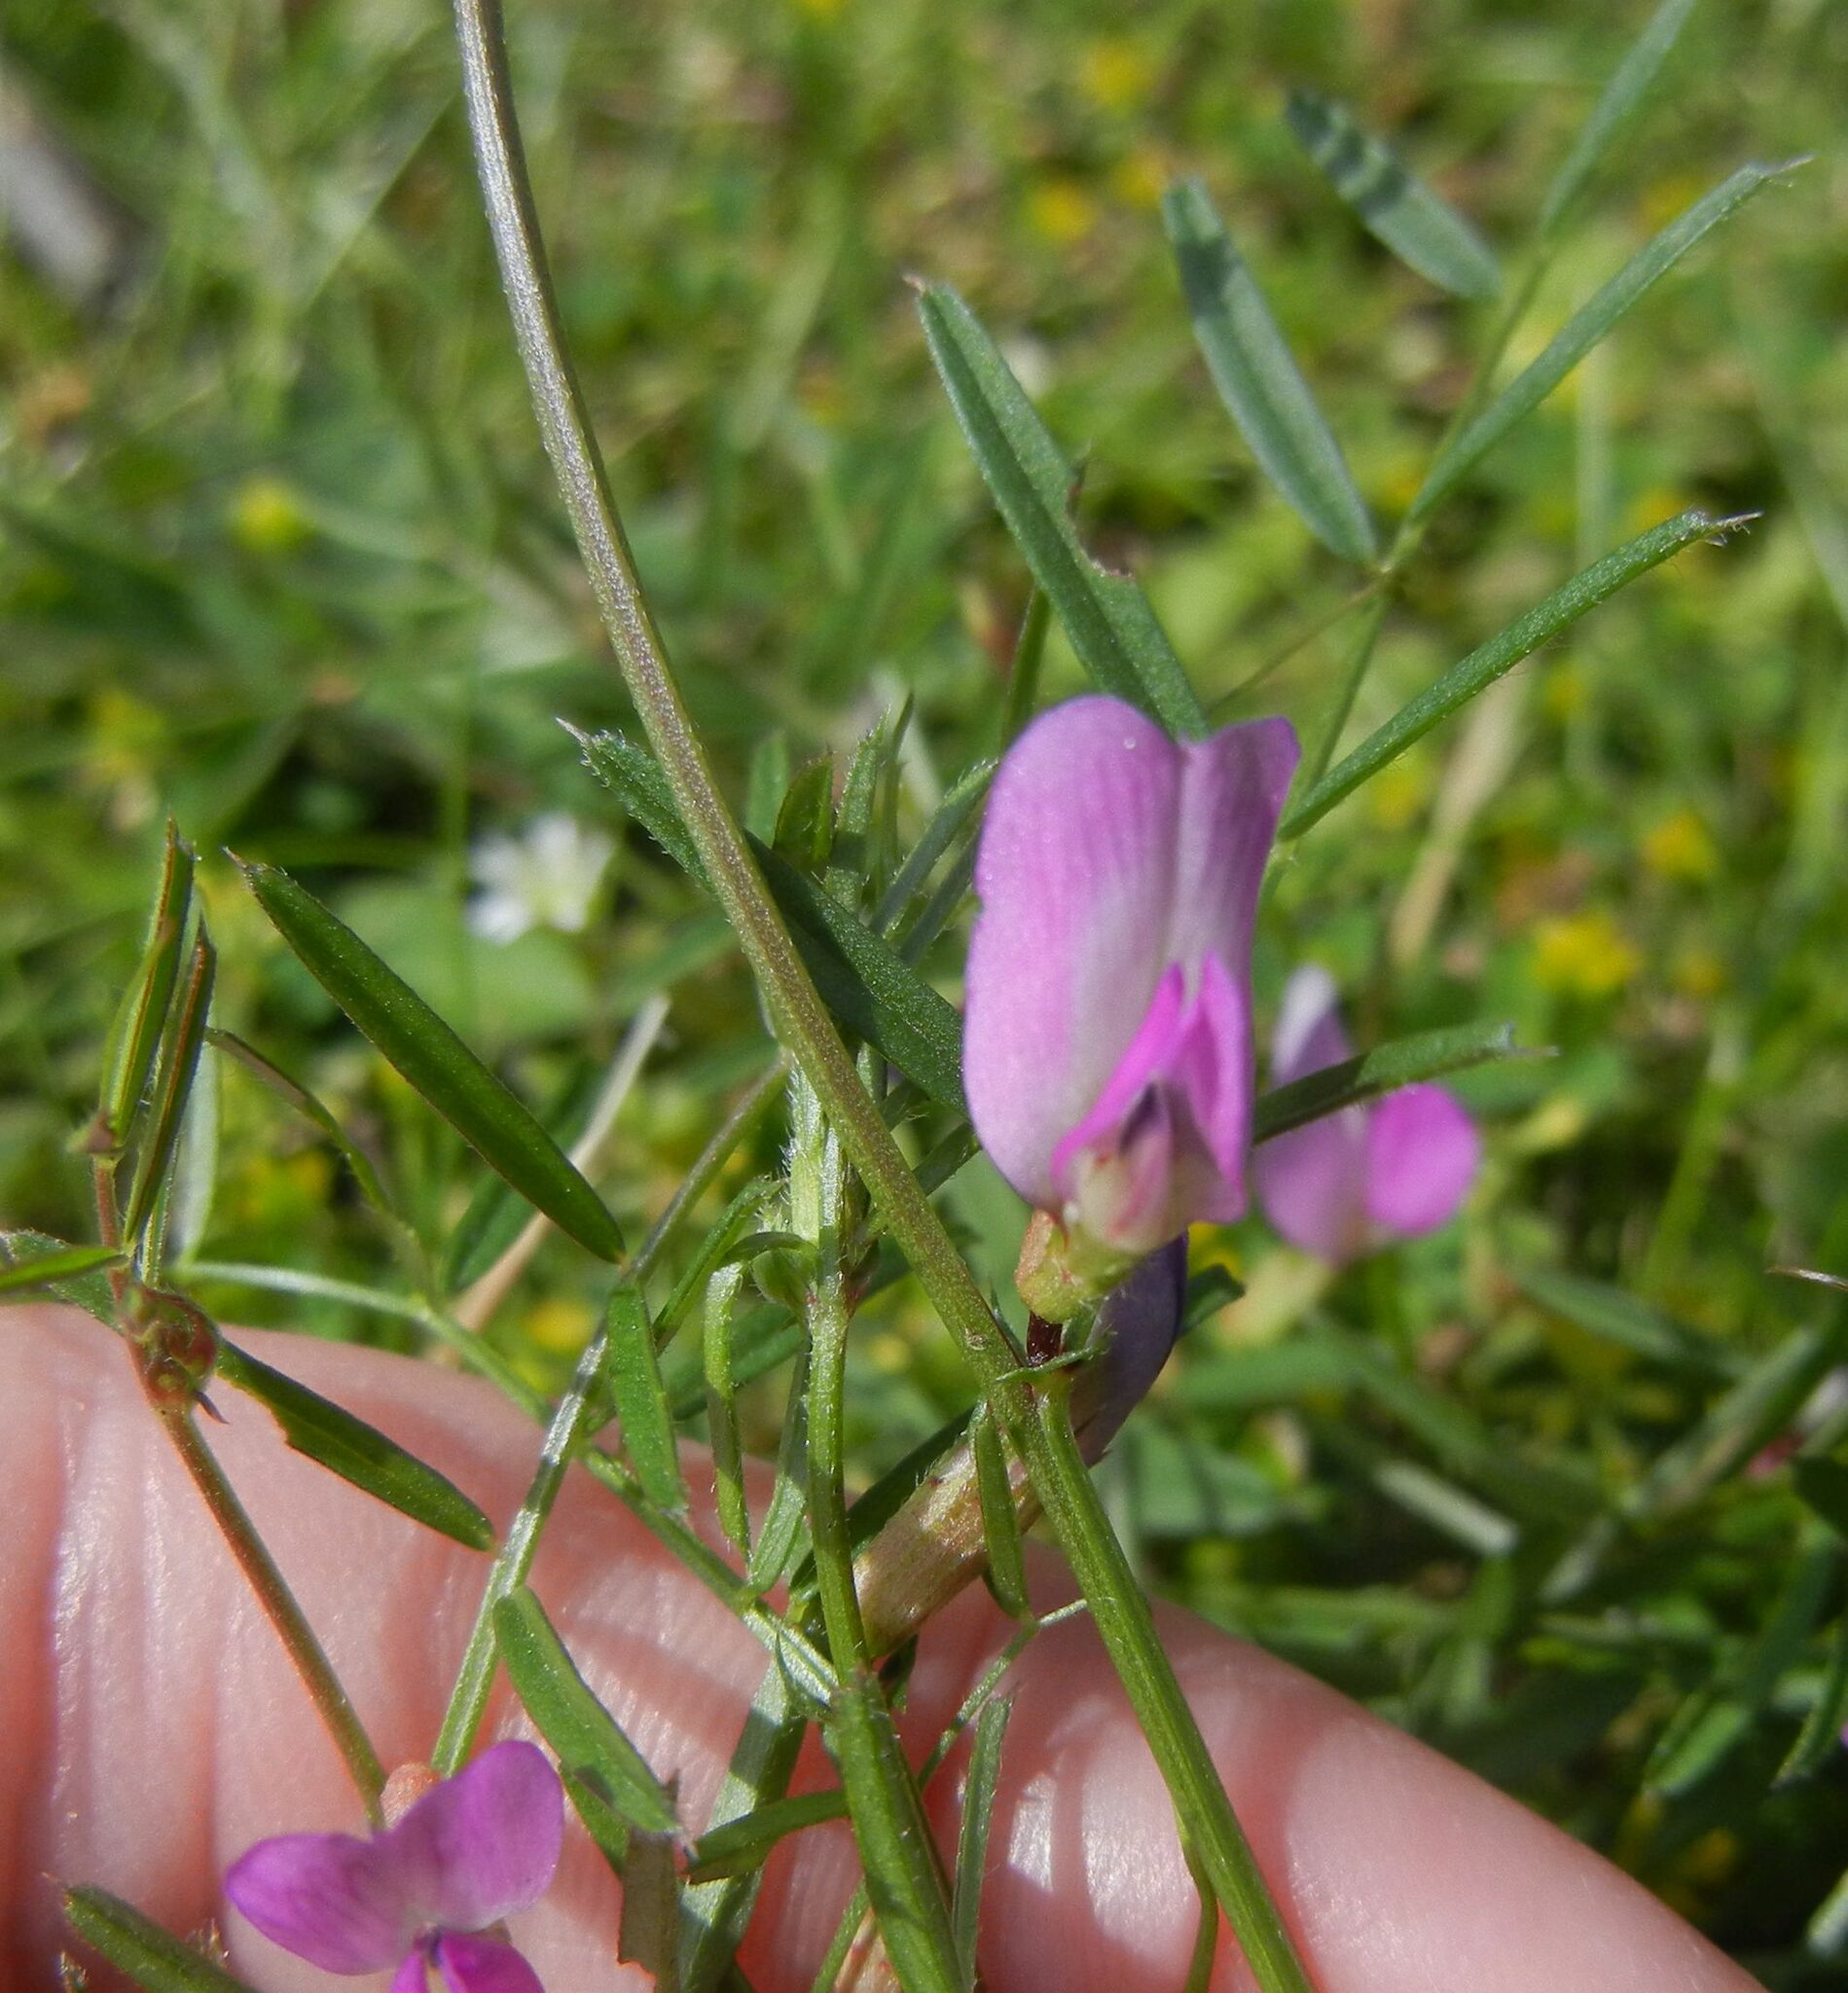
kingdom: Plantae
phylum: Tracheophyta
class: Magnoliopsida
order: Fabales
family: Fabaceae
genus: Vicia
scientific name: Vicia sativa
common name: Garden vetch
